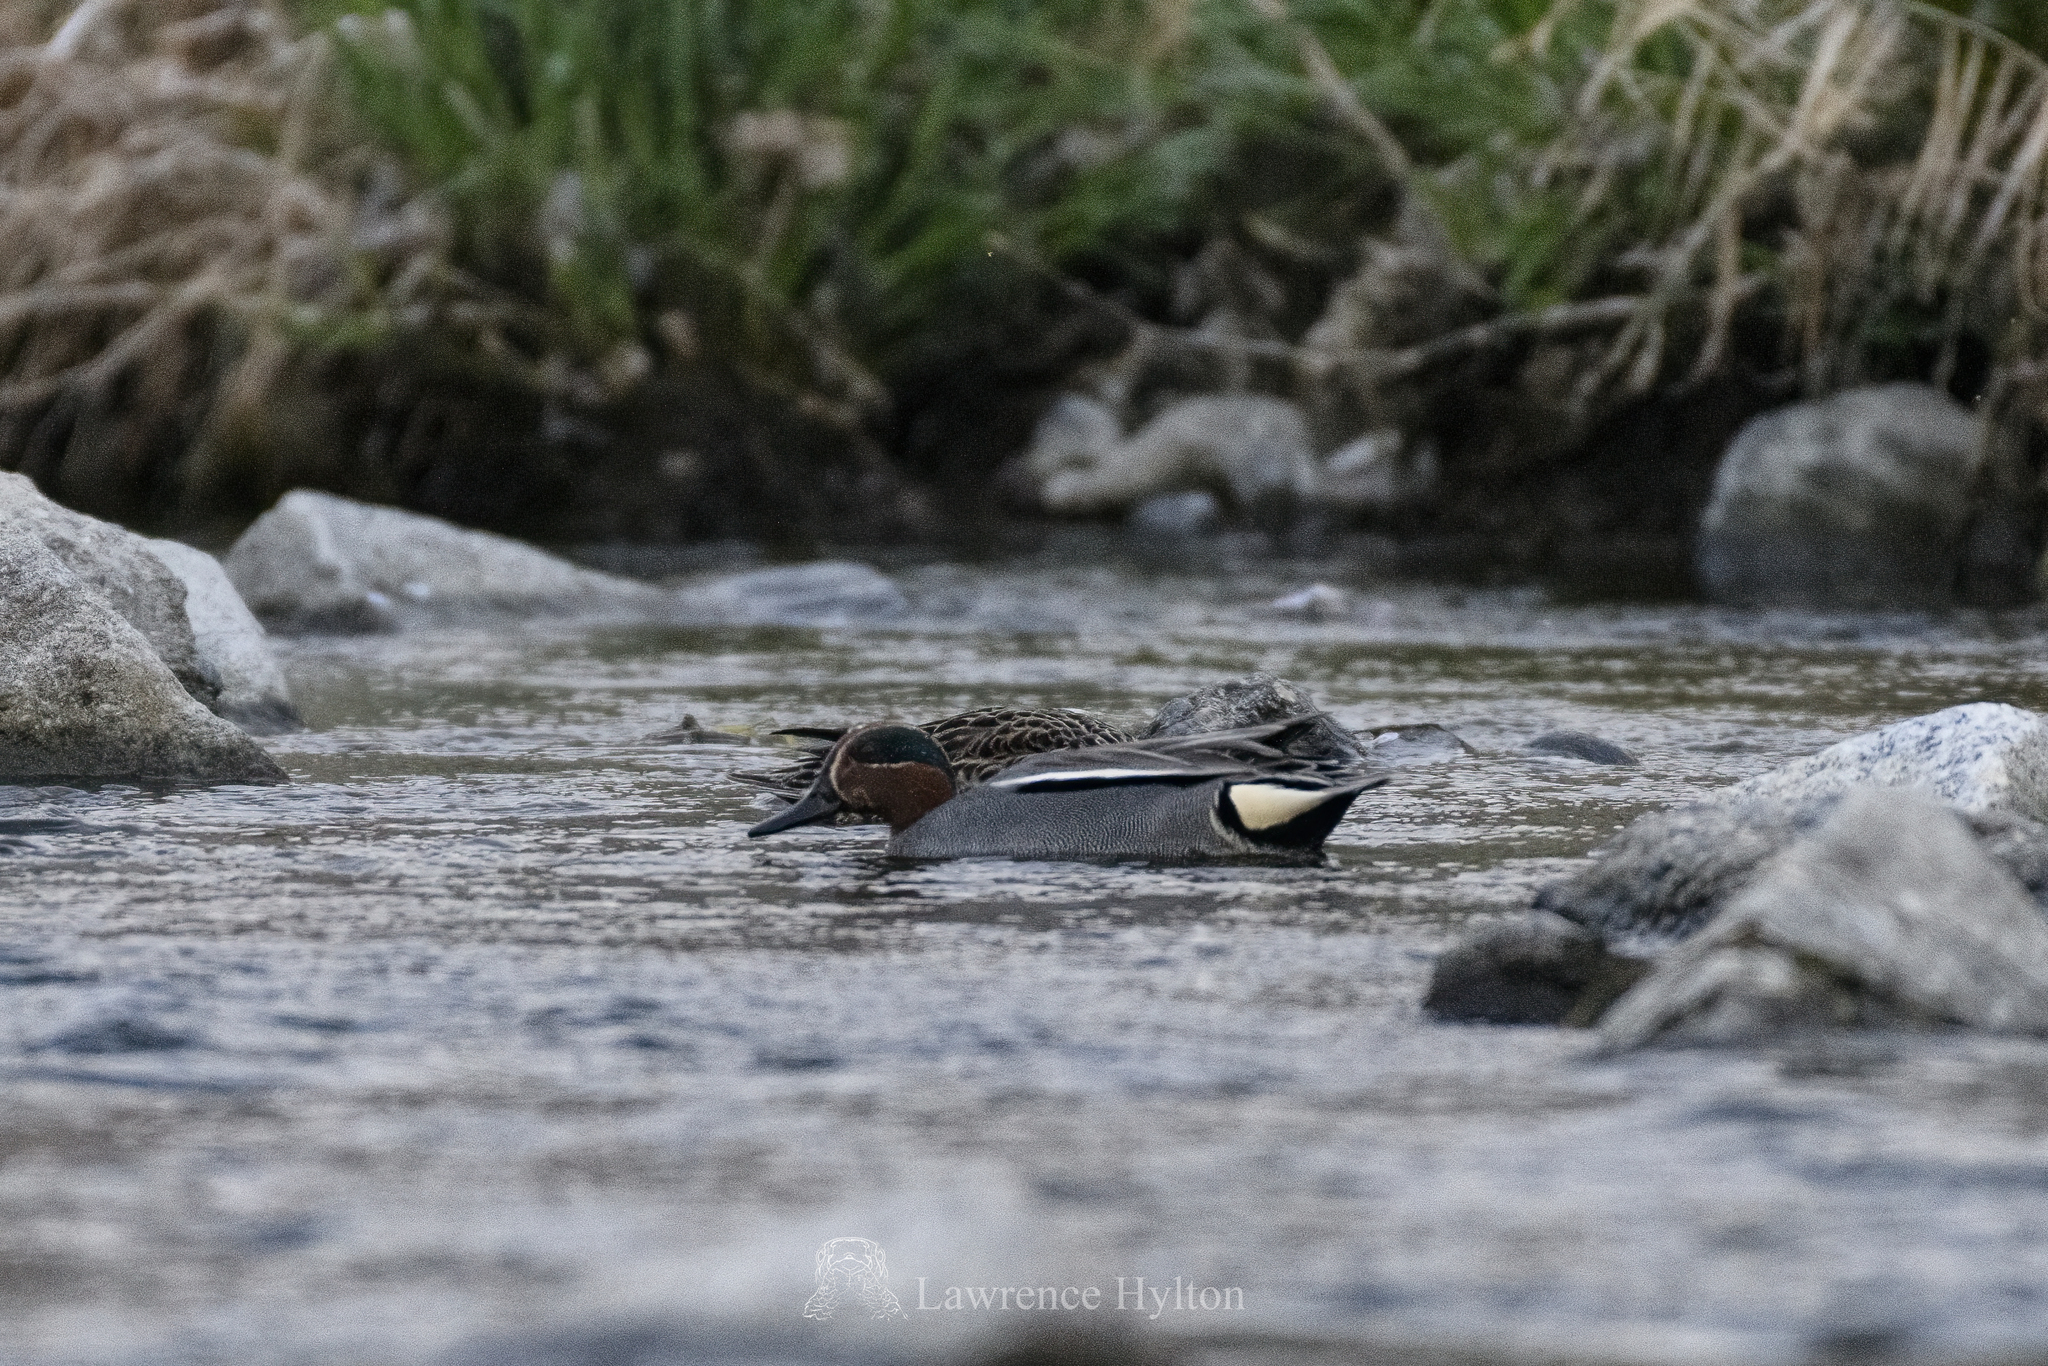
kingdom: Animalia
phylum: Chordata
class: Aves
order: Anseriformes
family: Anatidae
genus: Anas
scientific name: Anas crecca
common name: Eurasian teal
